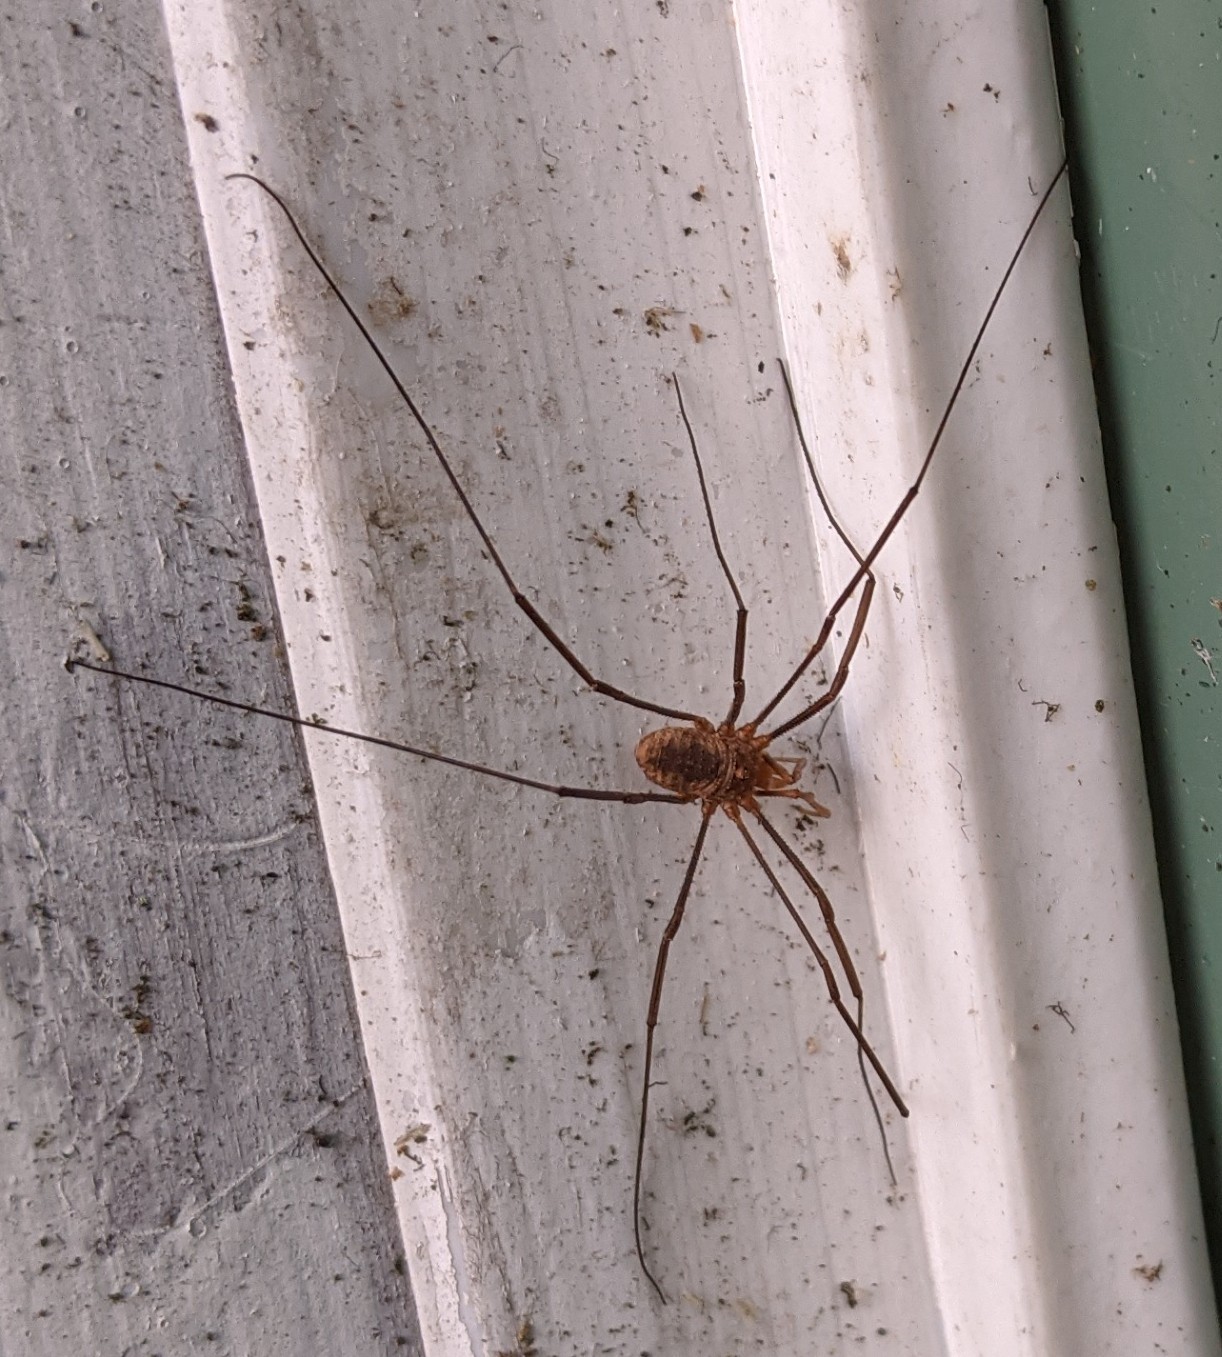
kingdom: Animalia
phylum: Arthropoda
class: Arachnida
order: Opiliones
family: Phalangiidae
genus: Phalangium
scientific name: Phalangium opilio
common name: Daddy longleg
